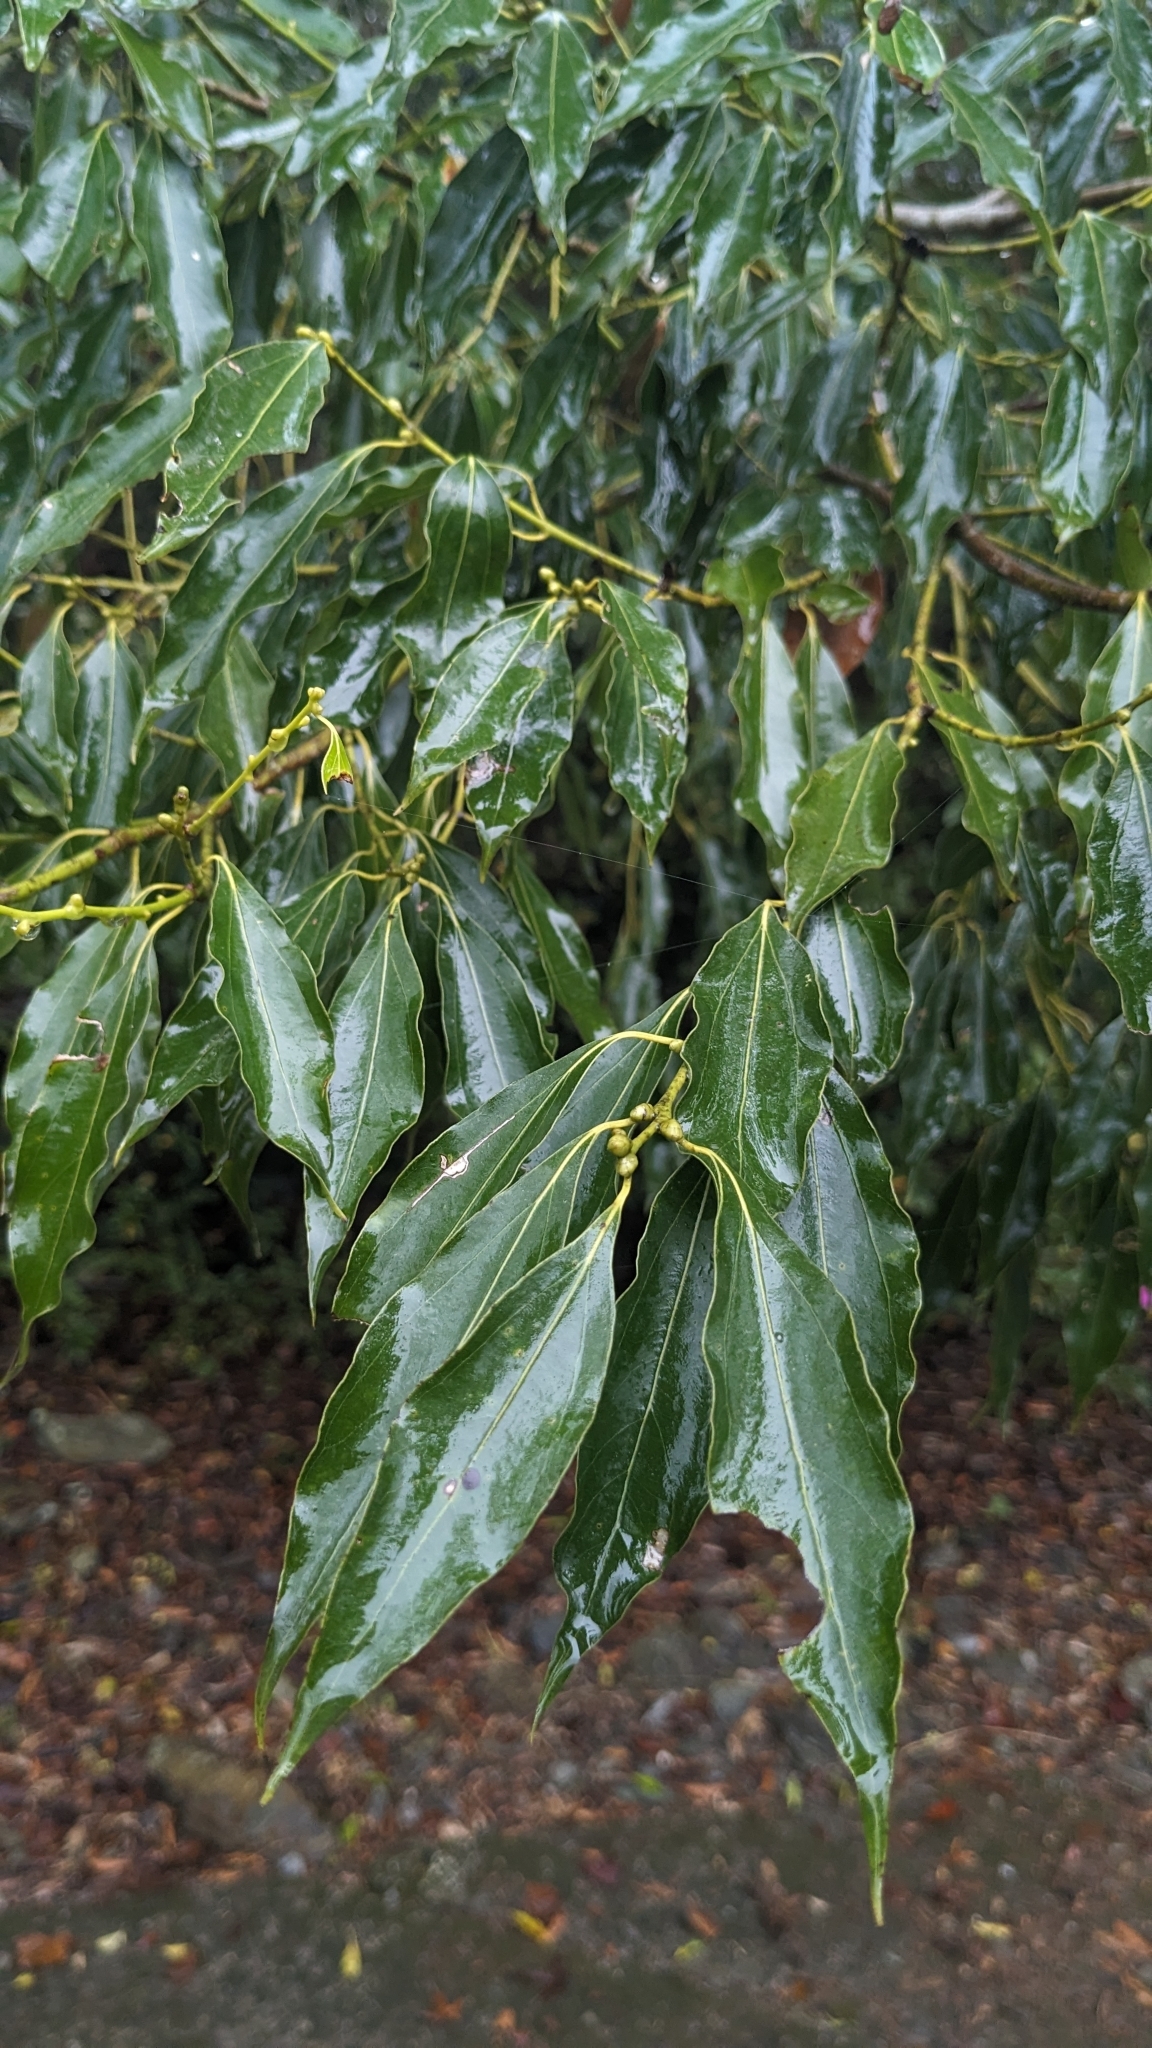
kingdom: Plantae
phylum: Tracheophyta
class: Magnoliopsida
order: Laurales
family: Lauraceae
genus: Cinnamomum
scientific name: Cinnamomum chekiangense
